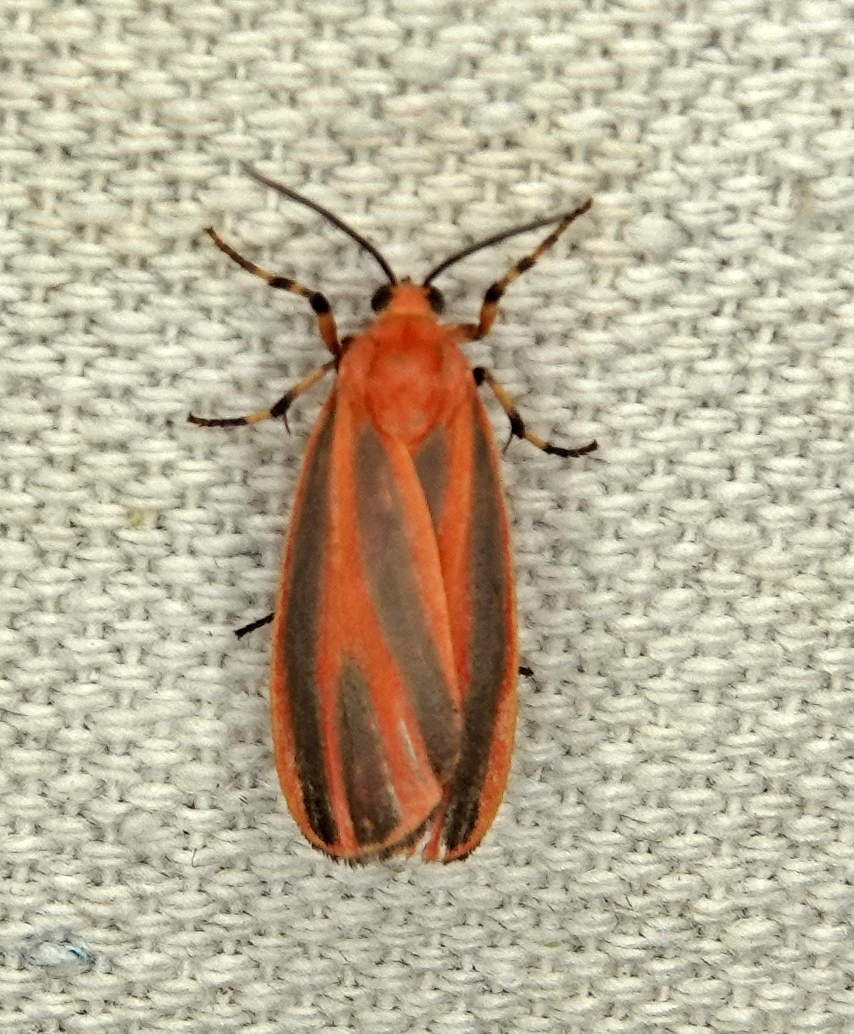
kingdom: Animalia
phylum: Arthropoda
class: Insecta
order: Lepidoptera
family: Erebidae
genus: Hypoprepia
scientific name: Hypoprepia miniata
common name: Scarlet-winged lichen moth
